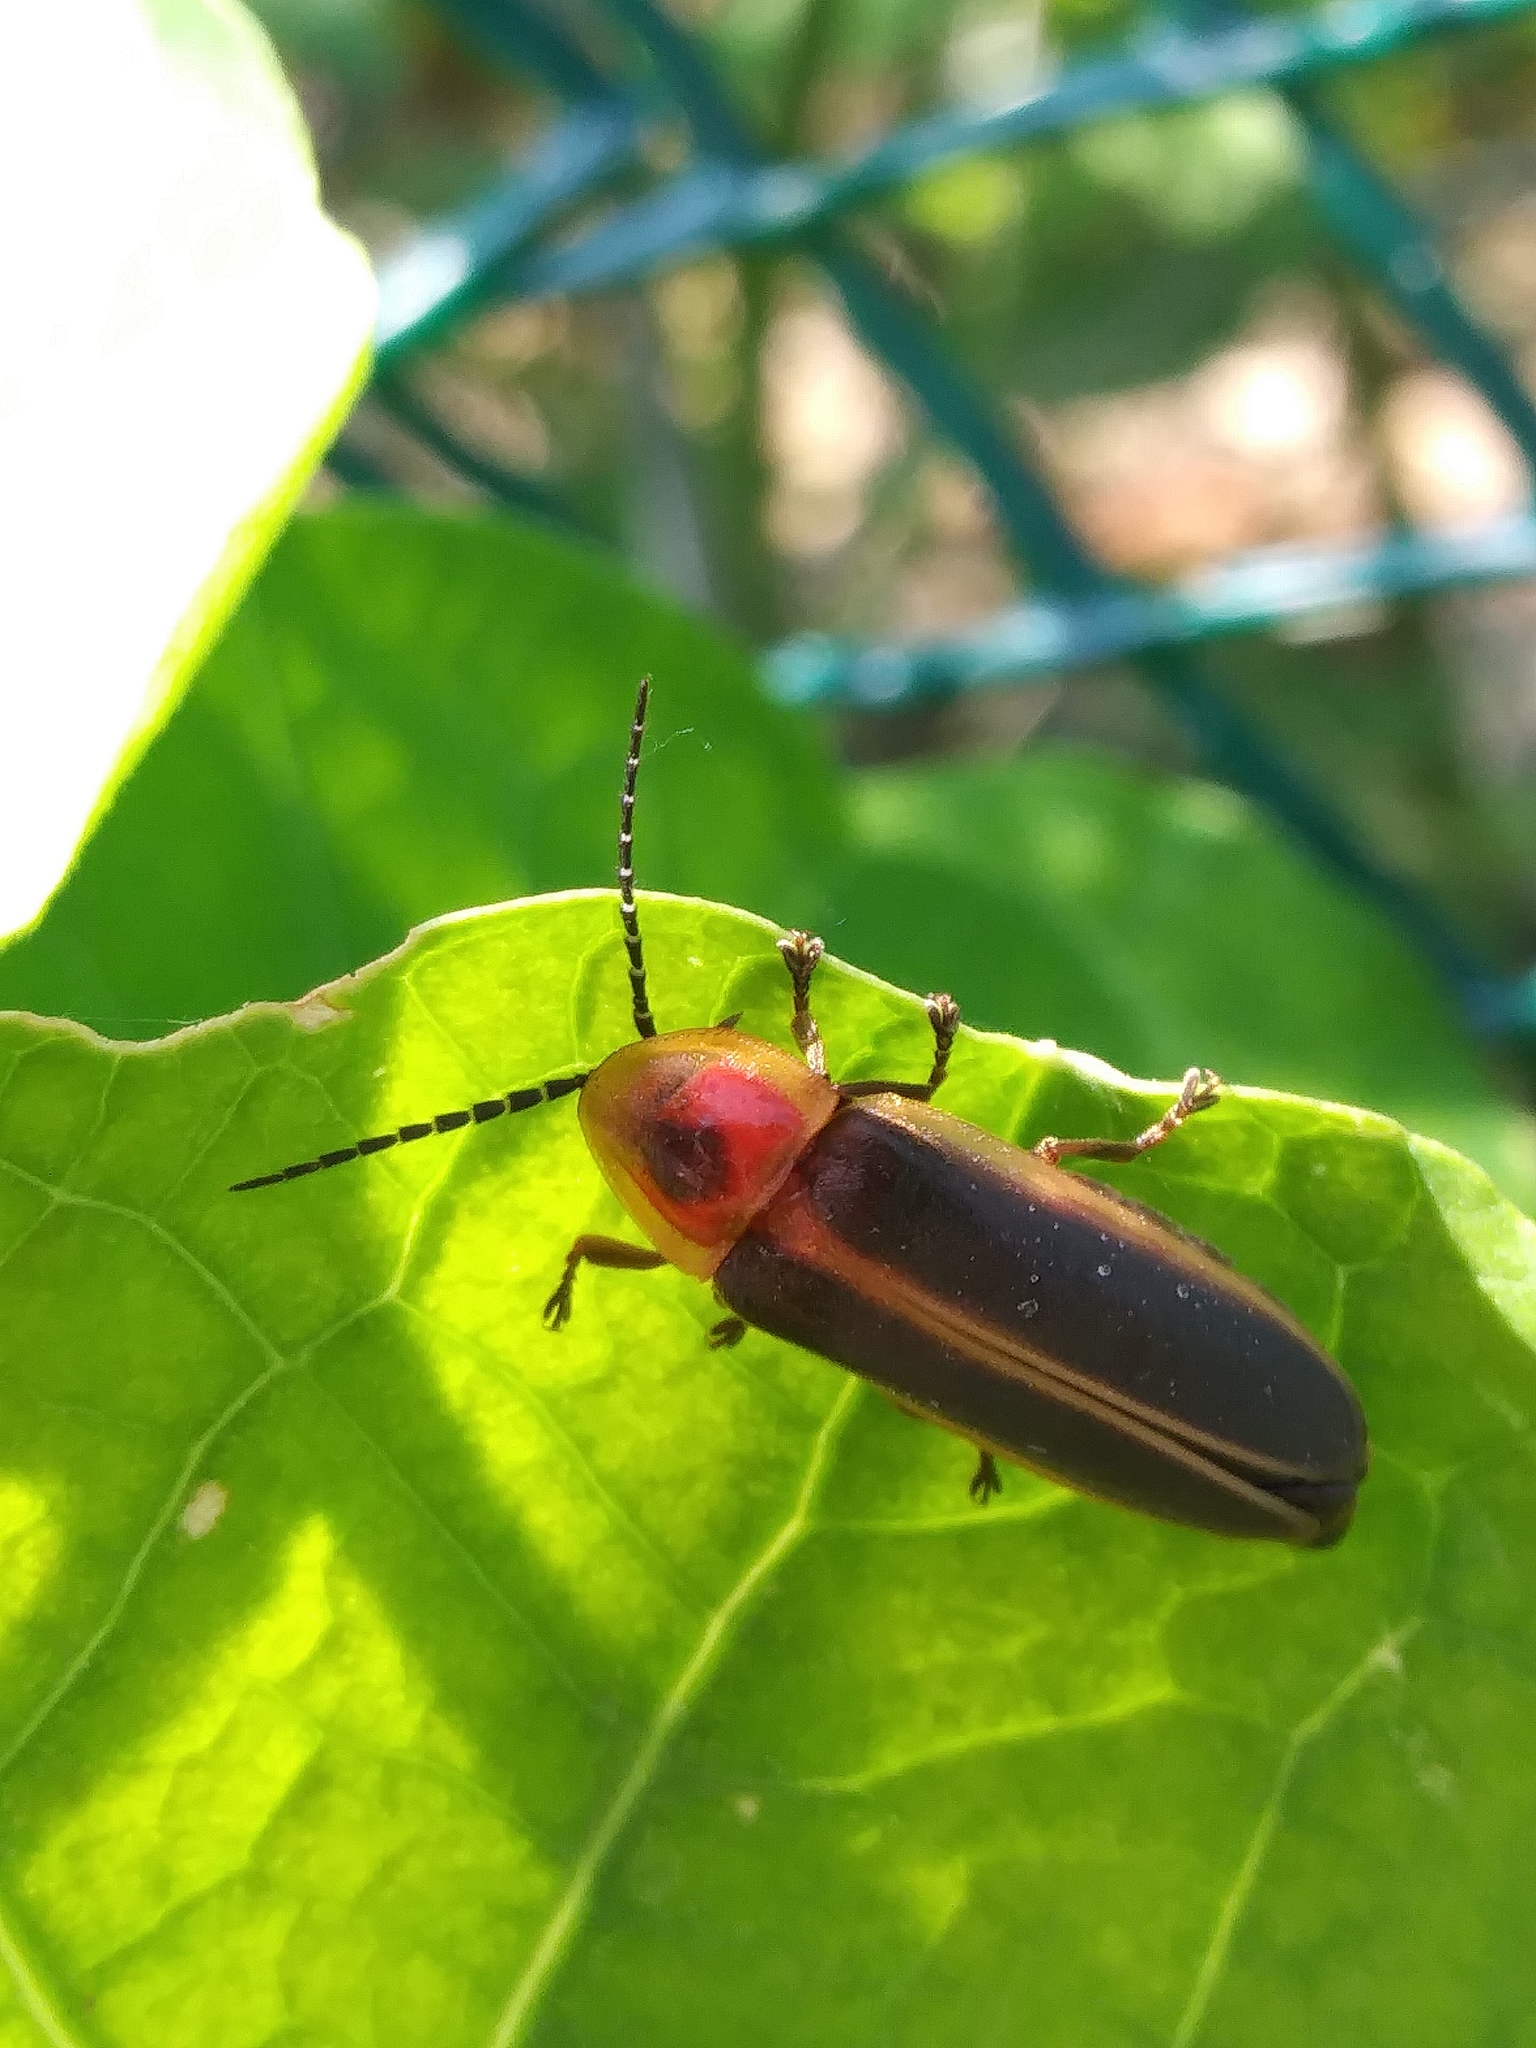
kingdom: Animalia
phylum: Arthropoda
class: Insecta
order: Coleoptera
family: Lampyridae
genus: Photinus
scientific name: Photinus pyralis
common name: Big dipper firefly
